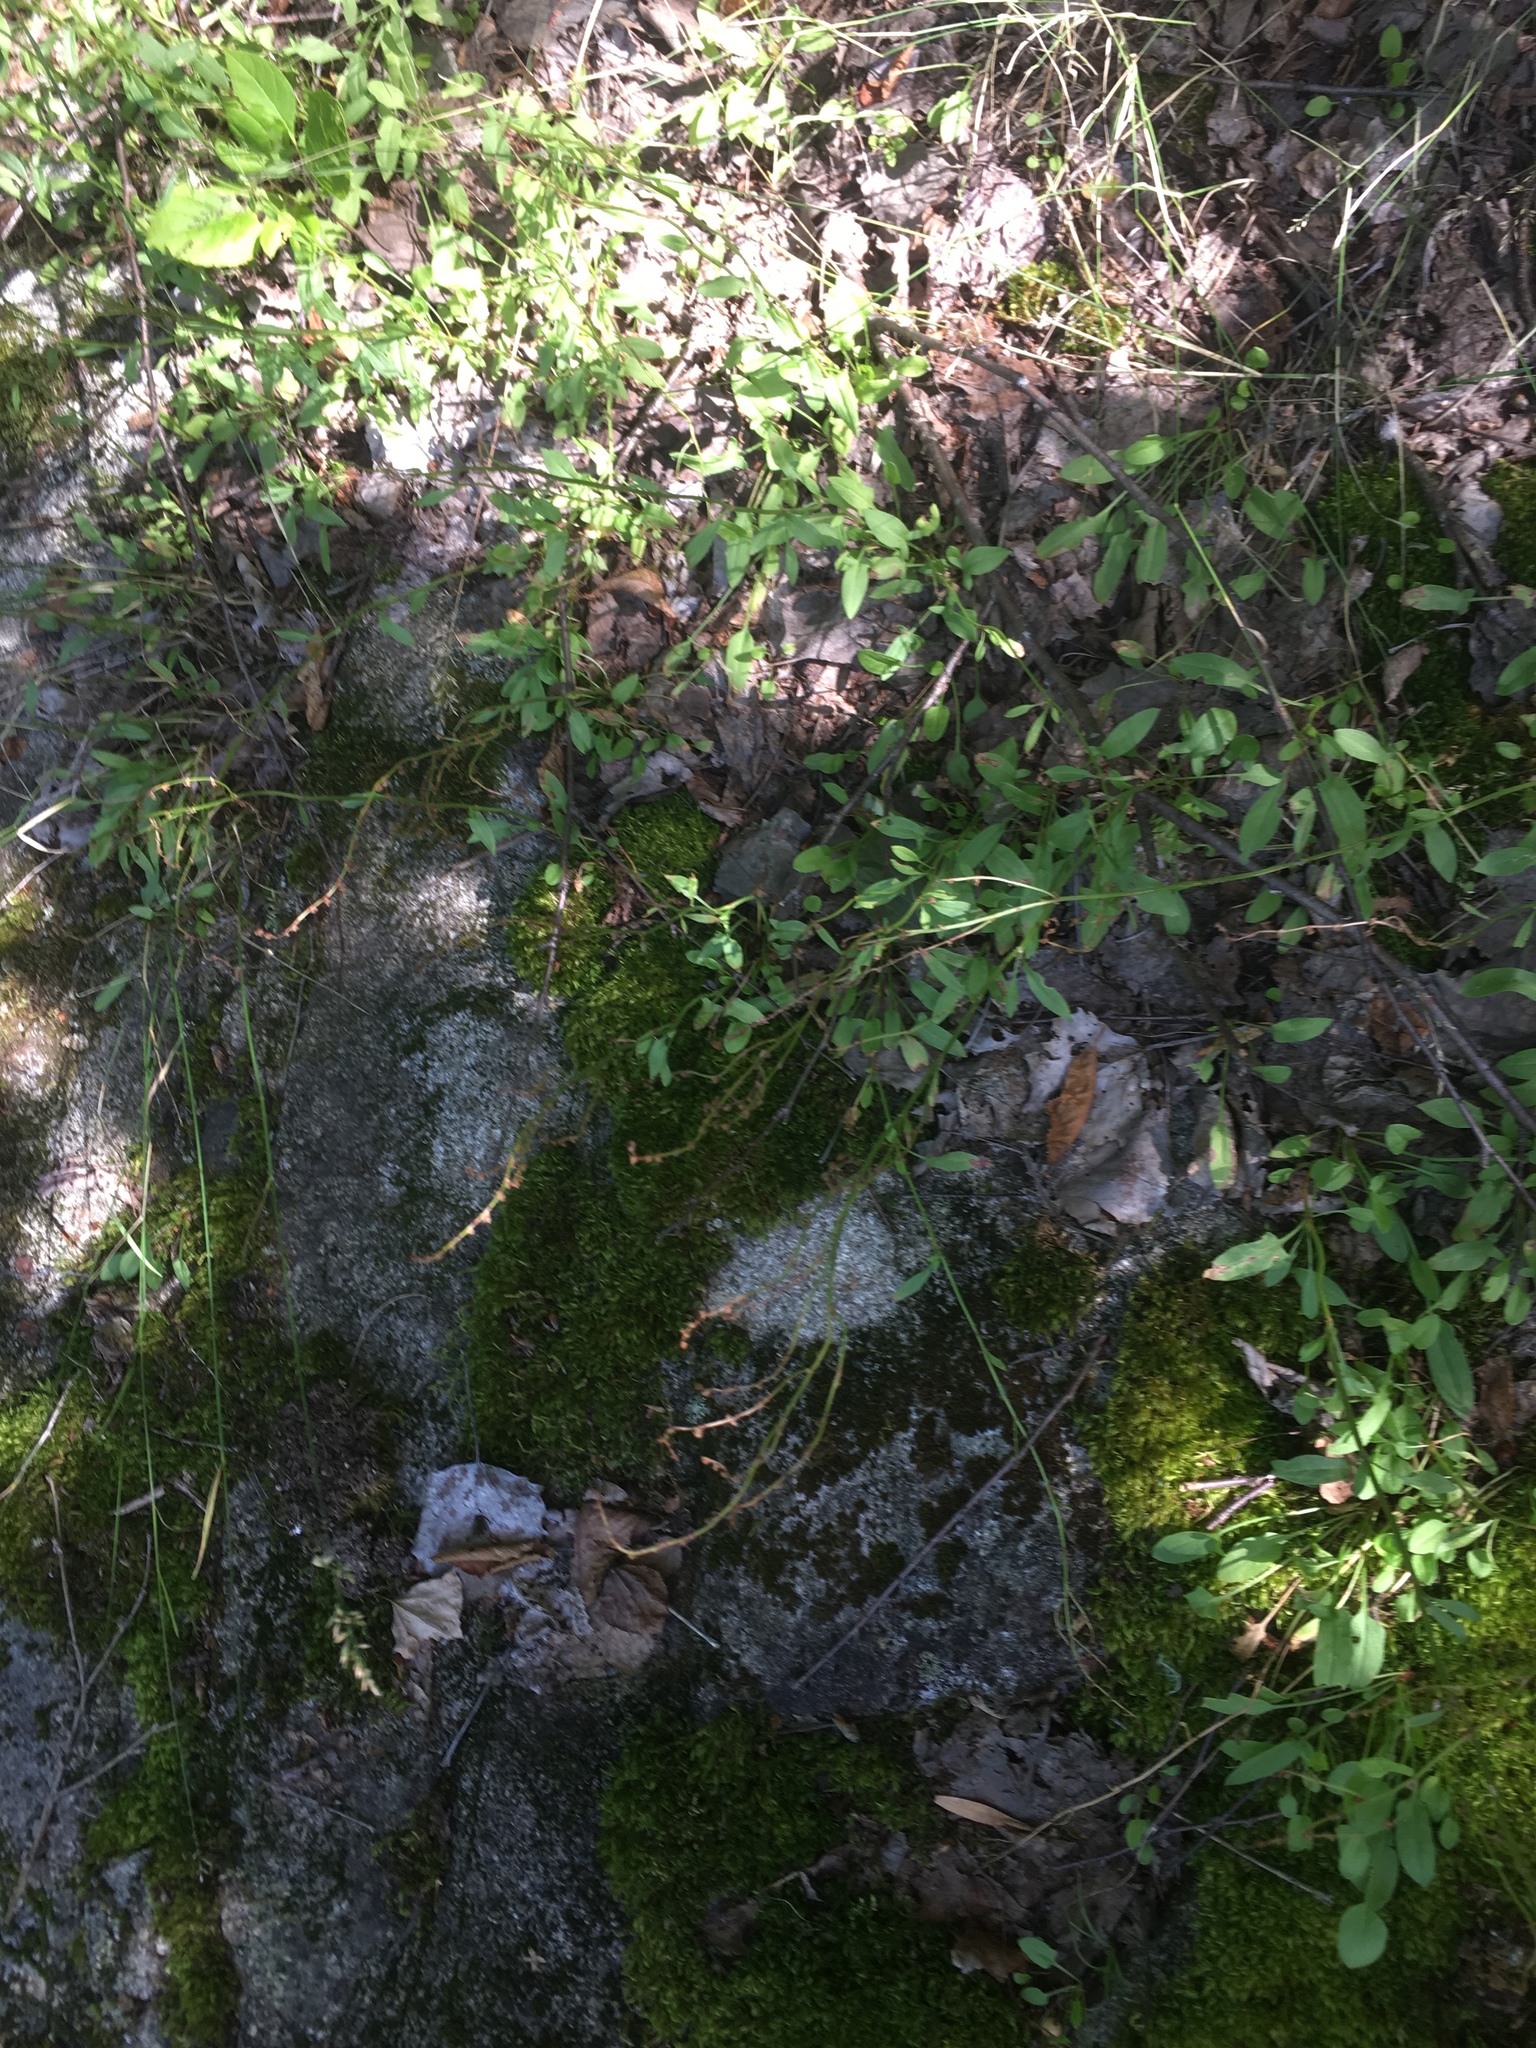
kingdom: Plantae
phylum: Tracheophyta
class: Magnoliopsida
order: Caryophyllales
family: Polygonaceae
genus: Rumex
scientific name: Rumex acetosella
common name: Common sheep sorrel
